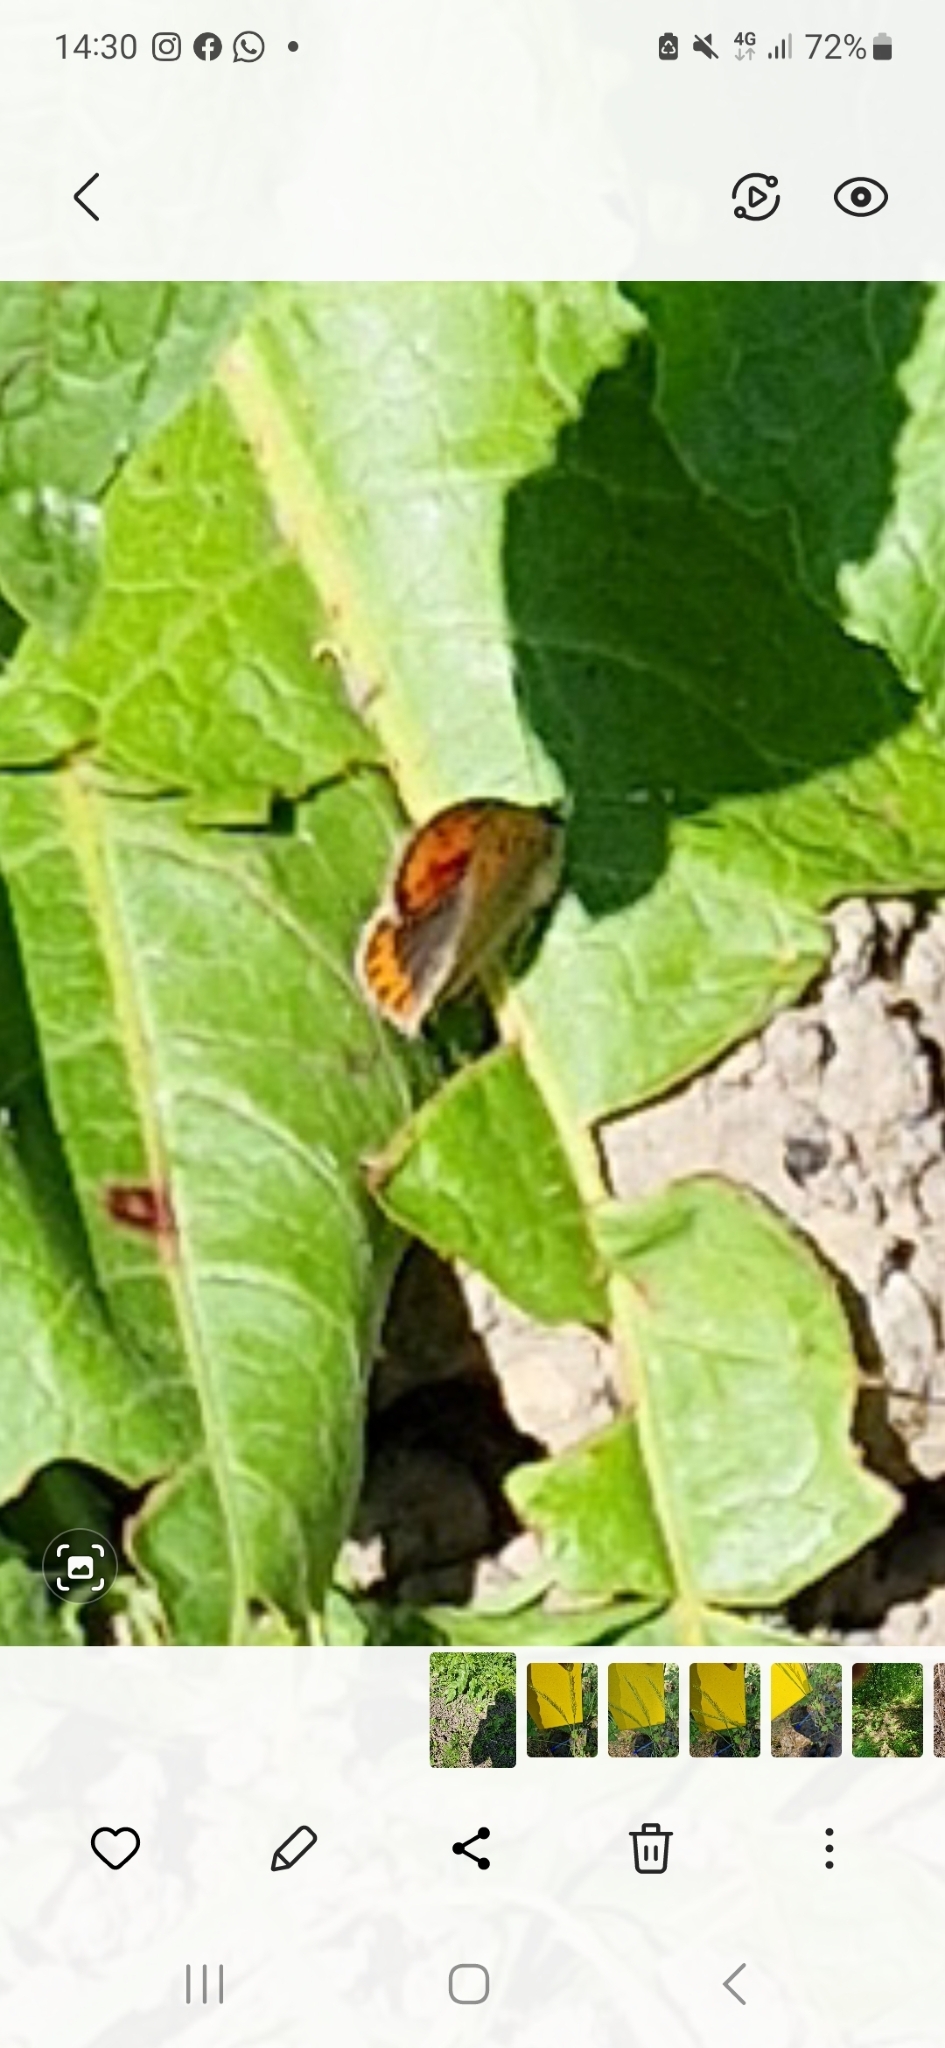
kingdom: Animalia
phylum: Arthropoda
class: Insecta
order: Lepidoptera
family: Lycaenidae
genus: Lycaena
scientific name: Lycaena phlaeas
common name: Small copper
